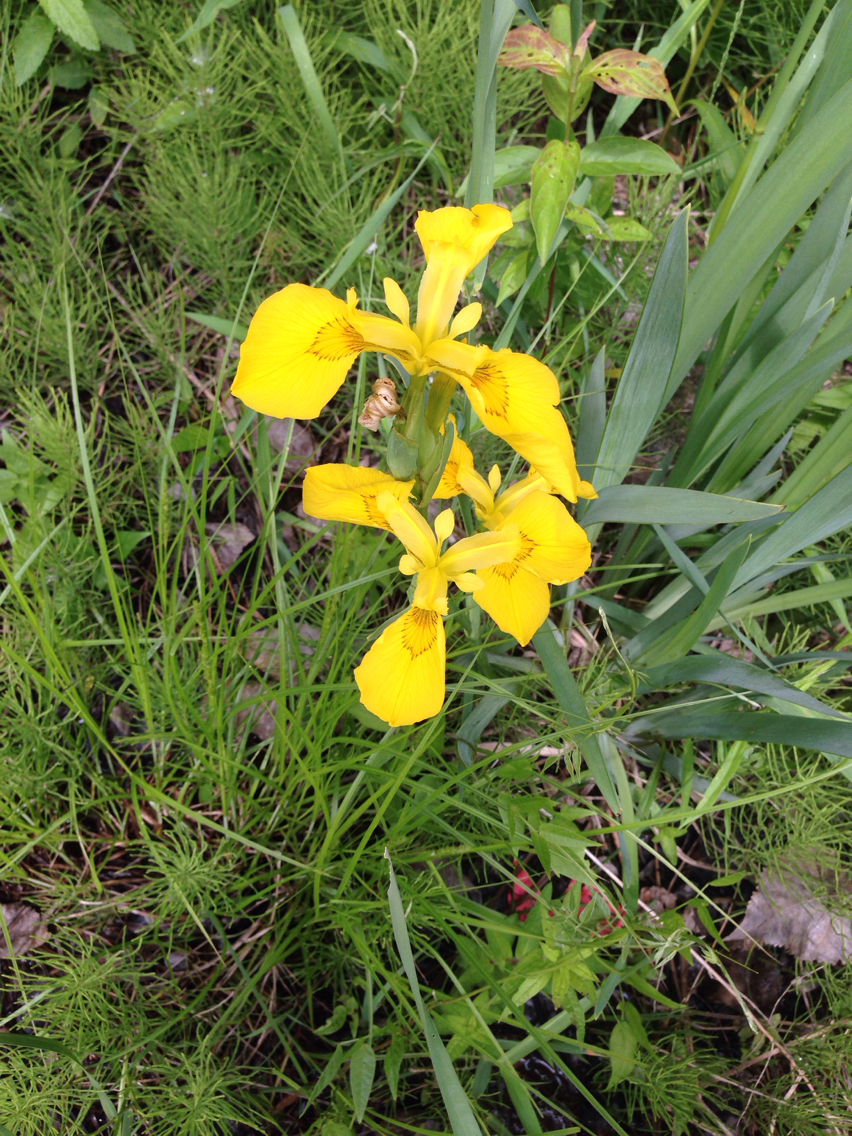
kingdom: Plantae
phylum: Tracheophyta
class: Liliopsida
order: Asparagales
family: Iridaceae
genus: Iris
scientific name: Iris pseudacorus
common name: Yellow flag
